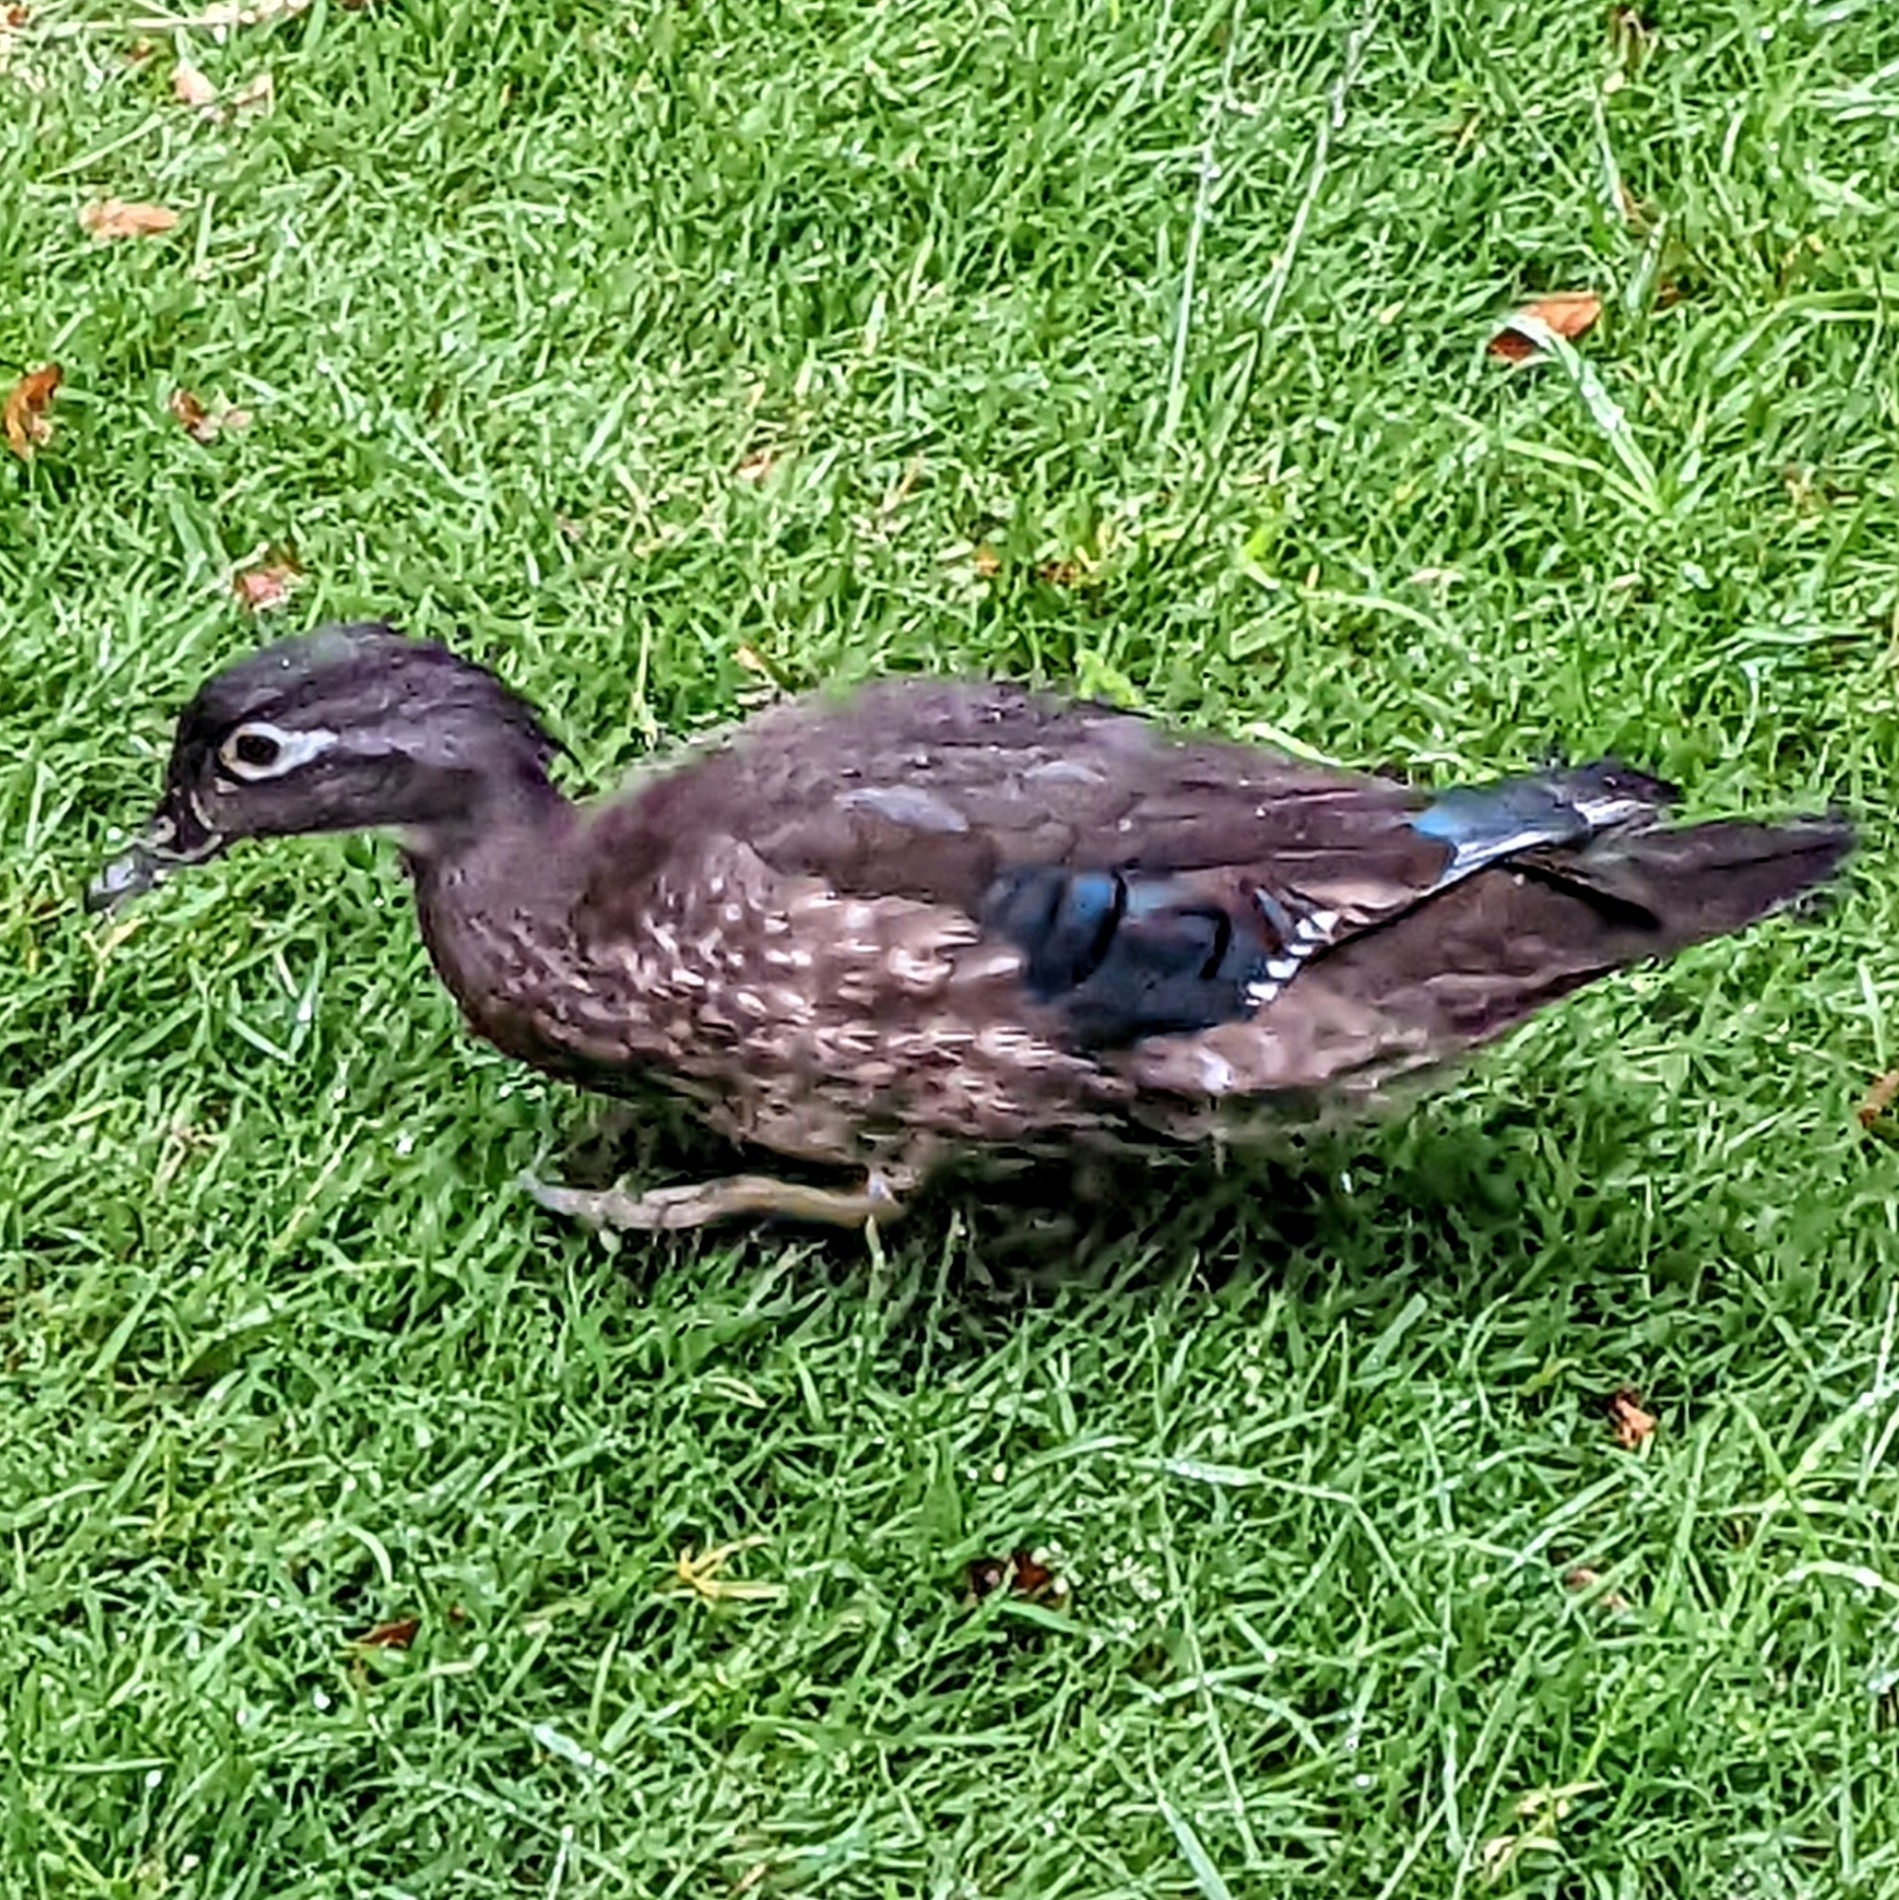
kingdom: Animalia
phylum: Chordata
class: Aves
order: Anseriformes
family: Anatidae
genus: Aix
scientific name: Aix sponsa
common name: Wood duck
